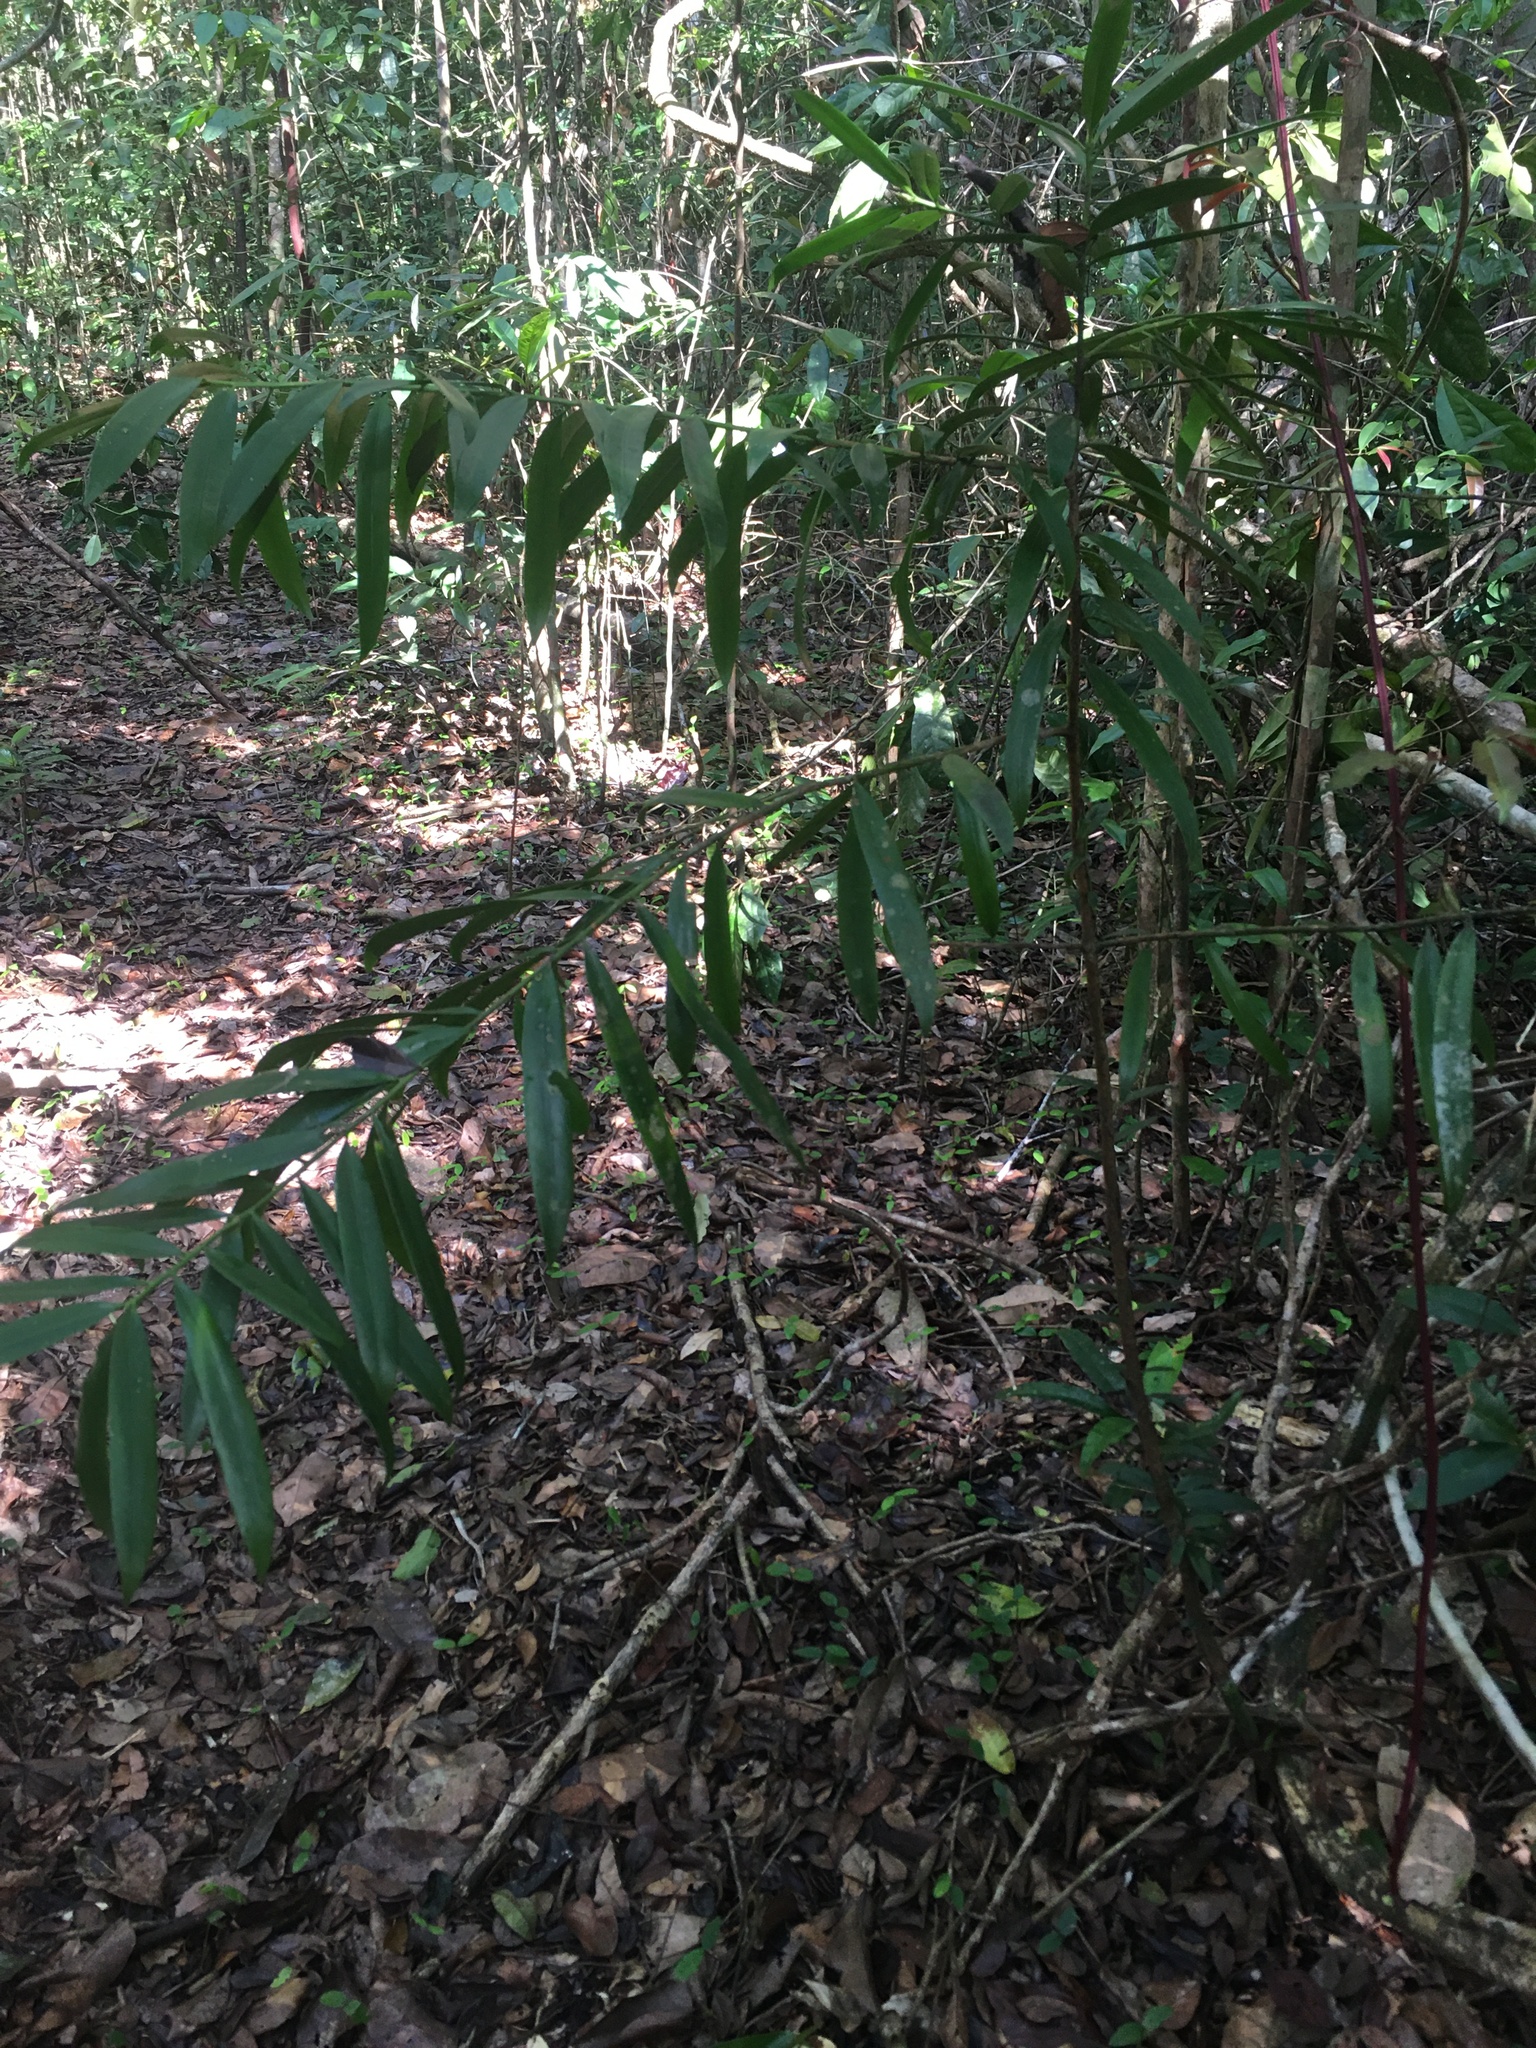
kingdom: Plantae
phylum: Tracheophyta
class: Pinopsida
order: Pinales
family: Podocarpaceae
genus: Podocarpus
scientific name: Podocarpus sellowii
